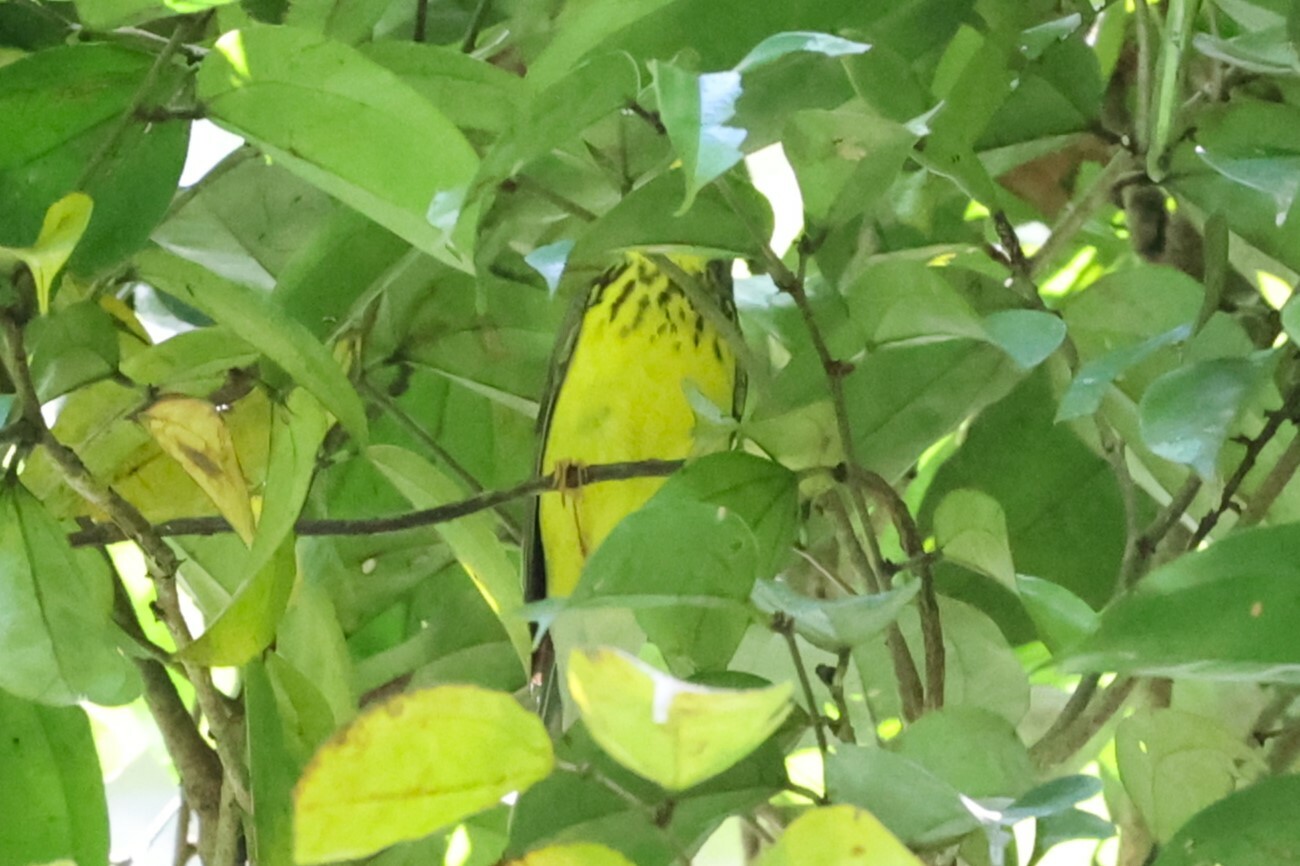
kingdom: Animalia
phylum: Chordata
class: Aves
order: Passeriformes
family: Parulidae
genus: Cardellina
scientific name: Cardellina canadensis
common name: Canada warbler
